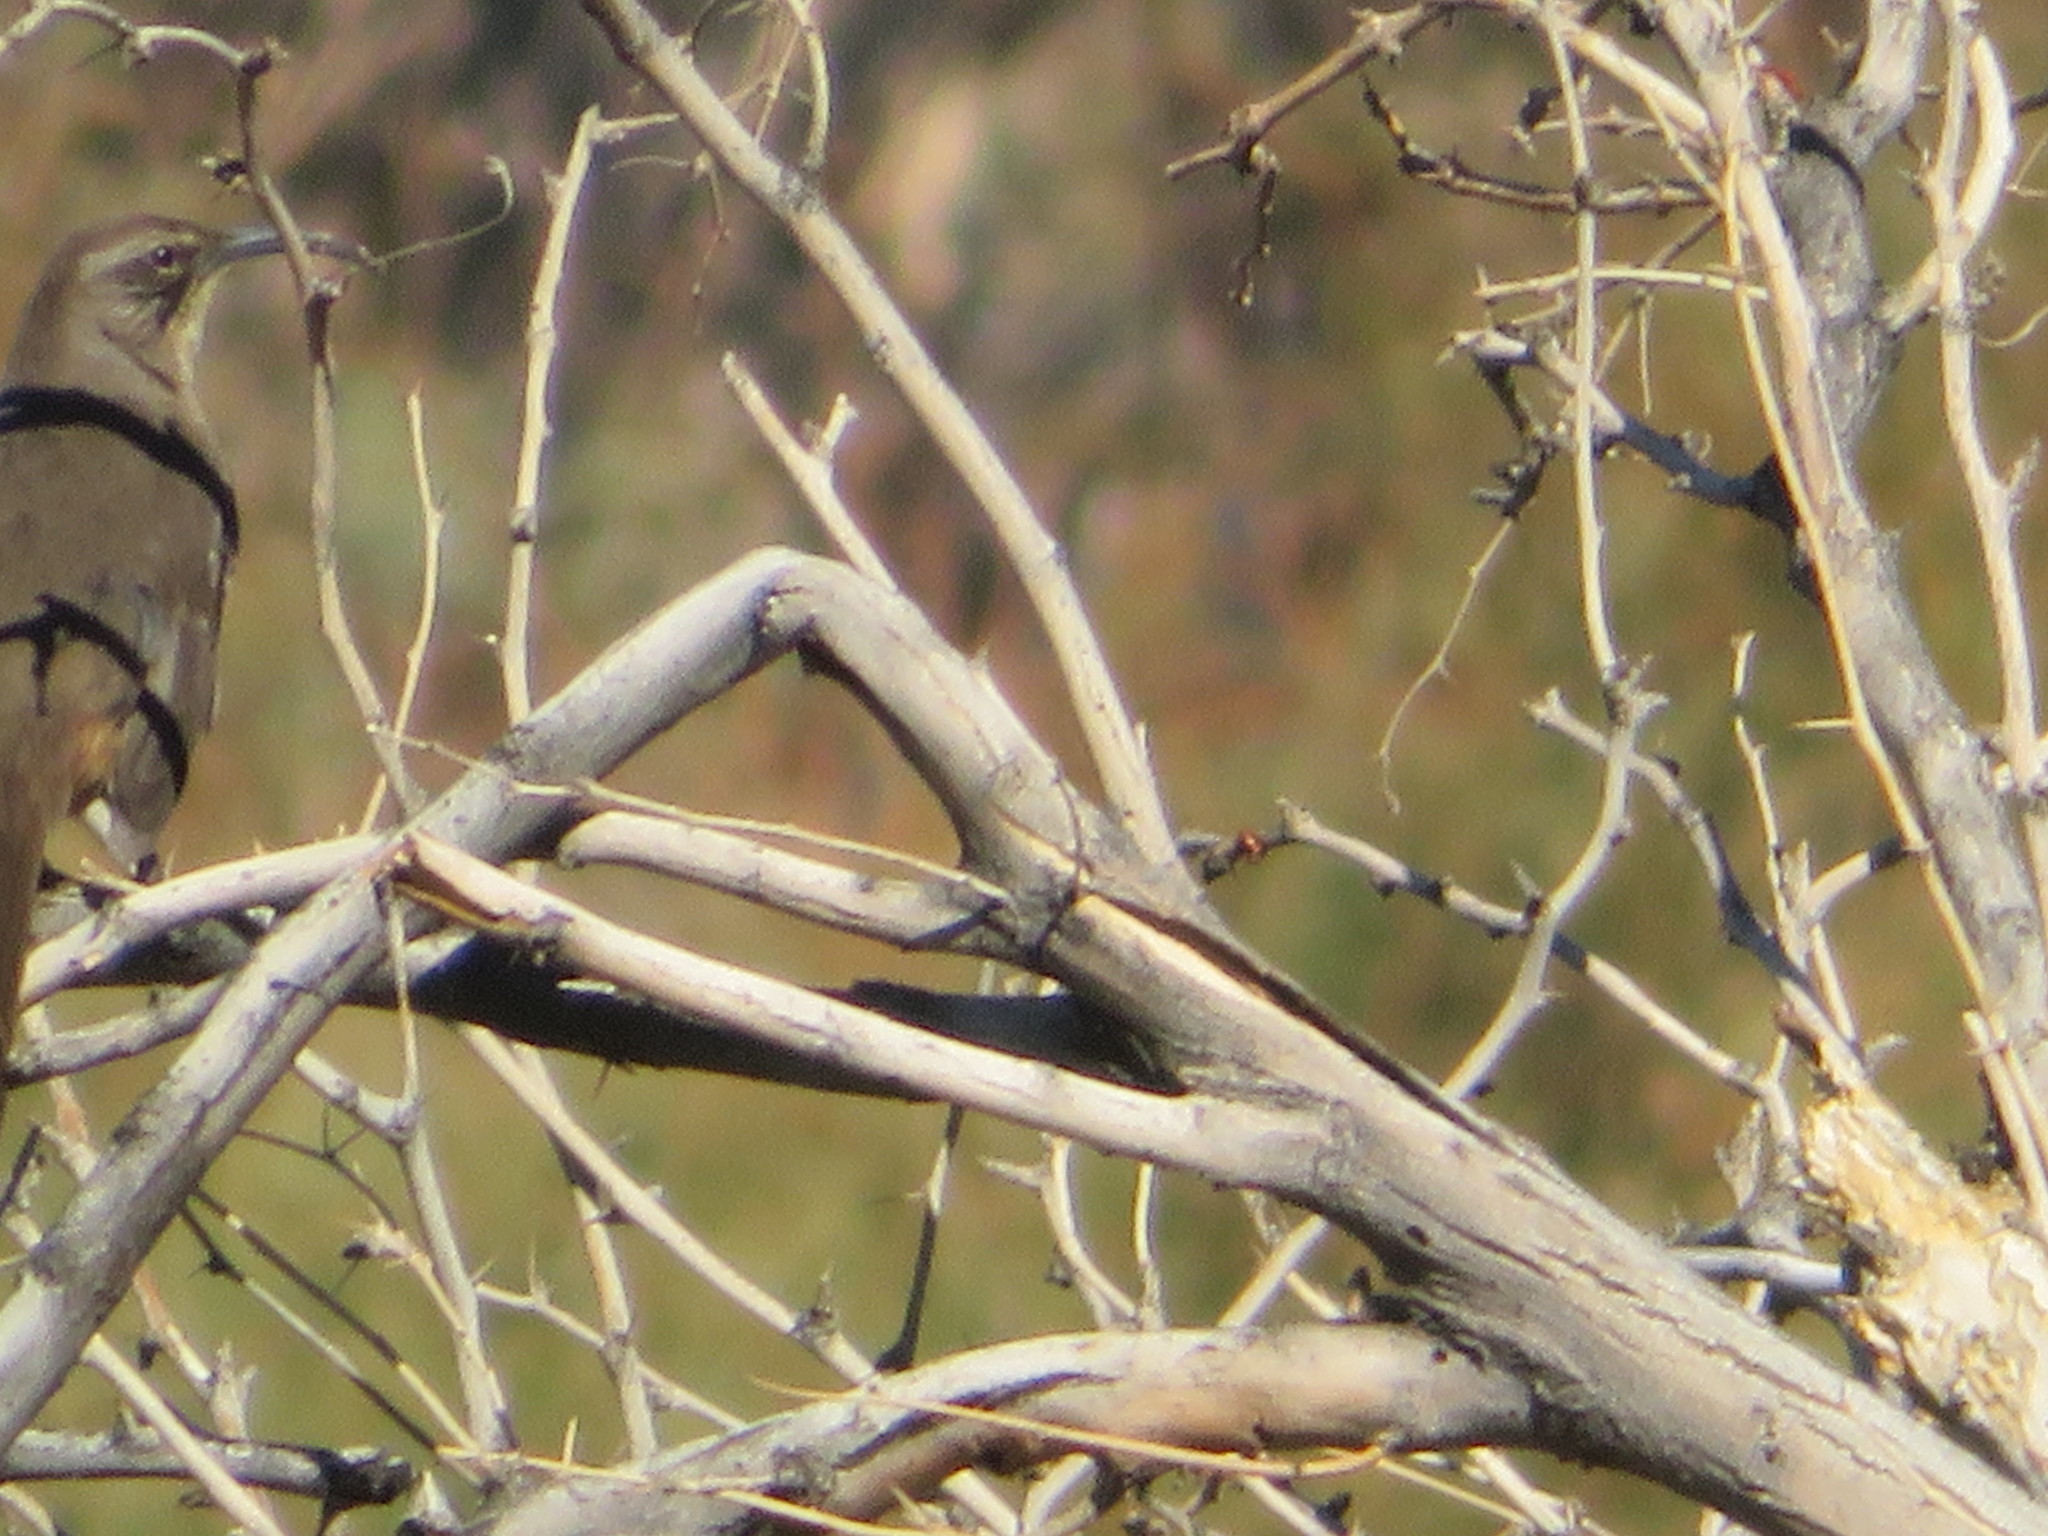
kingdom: Animalia
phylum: Chordata
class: Aves
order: Passeriformes
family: Mimidae
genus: Toxostoma
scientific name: Toxostoma redivivum
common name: California thrasher
